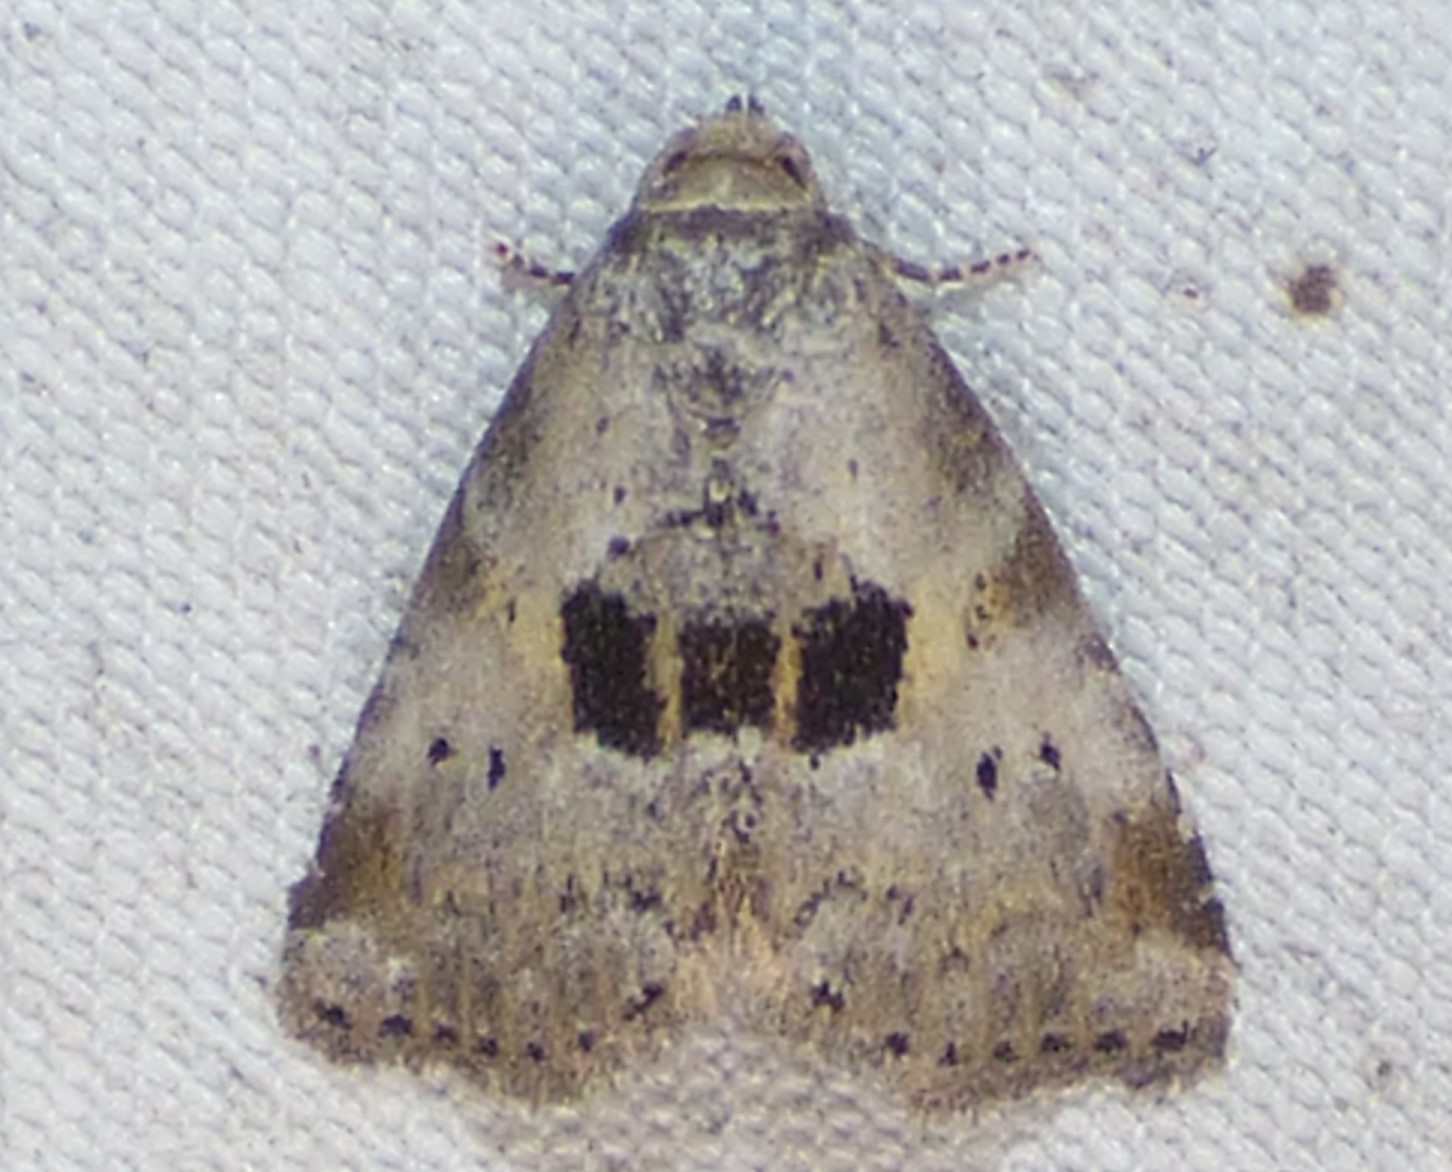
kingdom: Animalia
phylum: Arthropoda
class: Insecta
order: Lepidoptera
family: Erebidae
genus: Hyperstrotia
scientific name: Hyperstrotia secta
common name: Black-patched graylet
